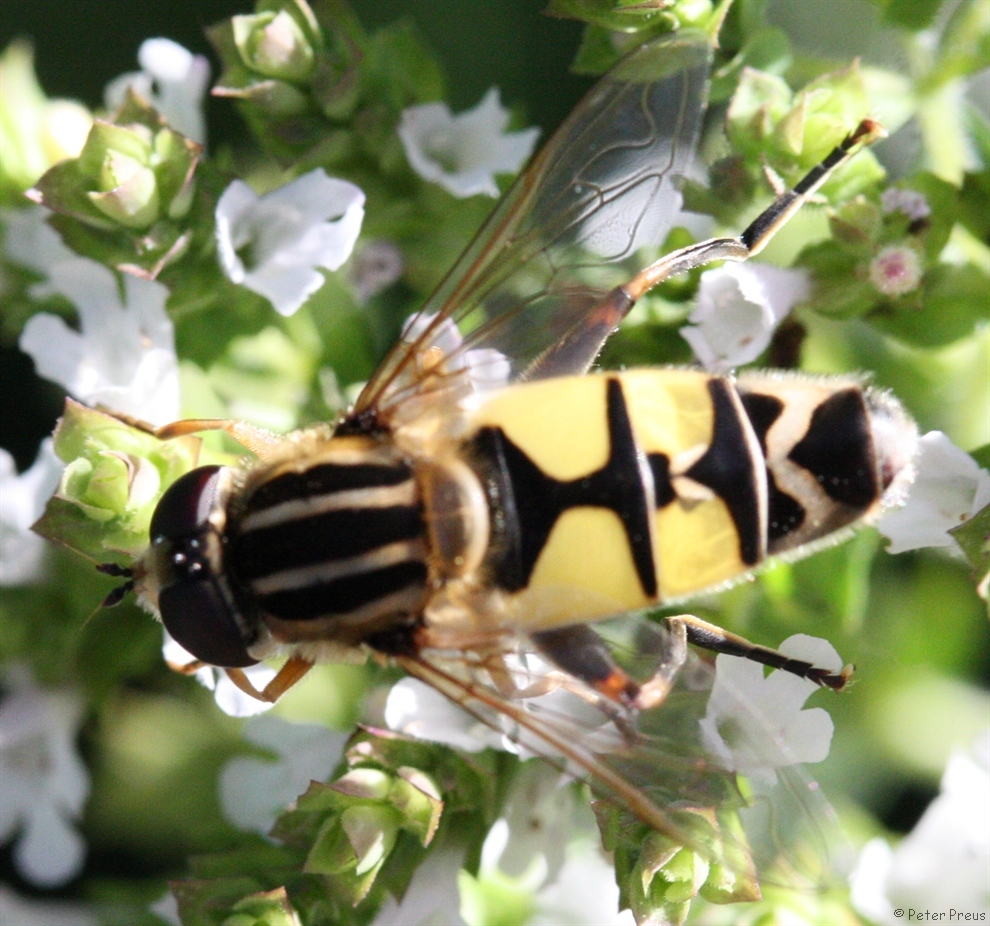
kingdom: Animalia
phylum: Arthropoda
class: Insecta
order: Diptera
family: Syrphidae
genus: Helophilus
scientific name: Helophilus trivittatus
